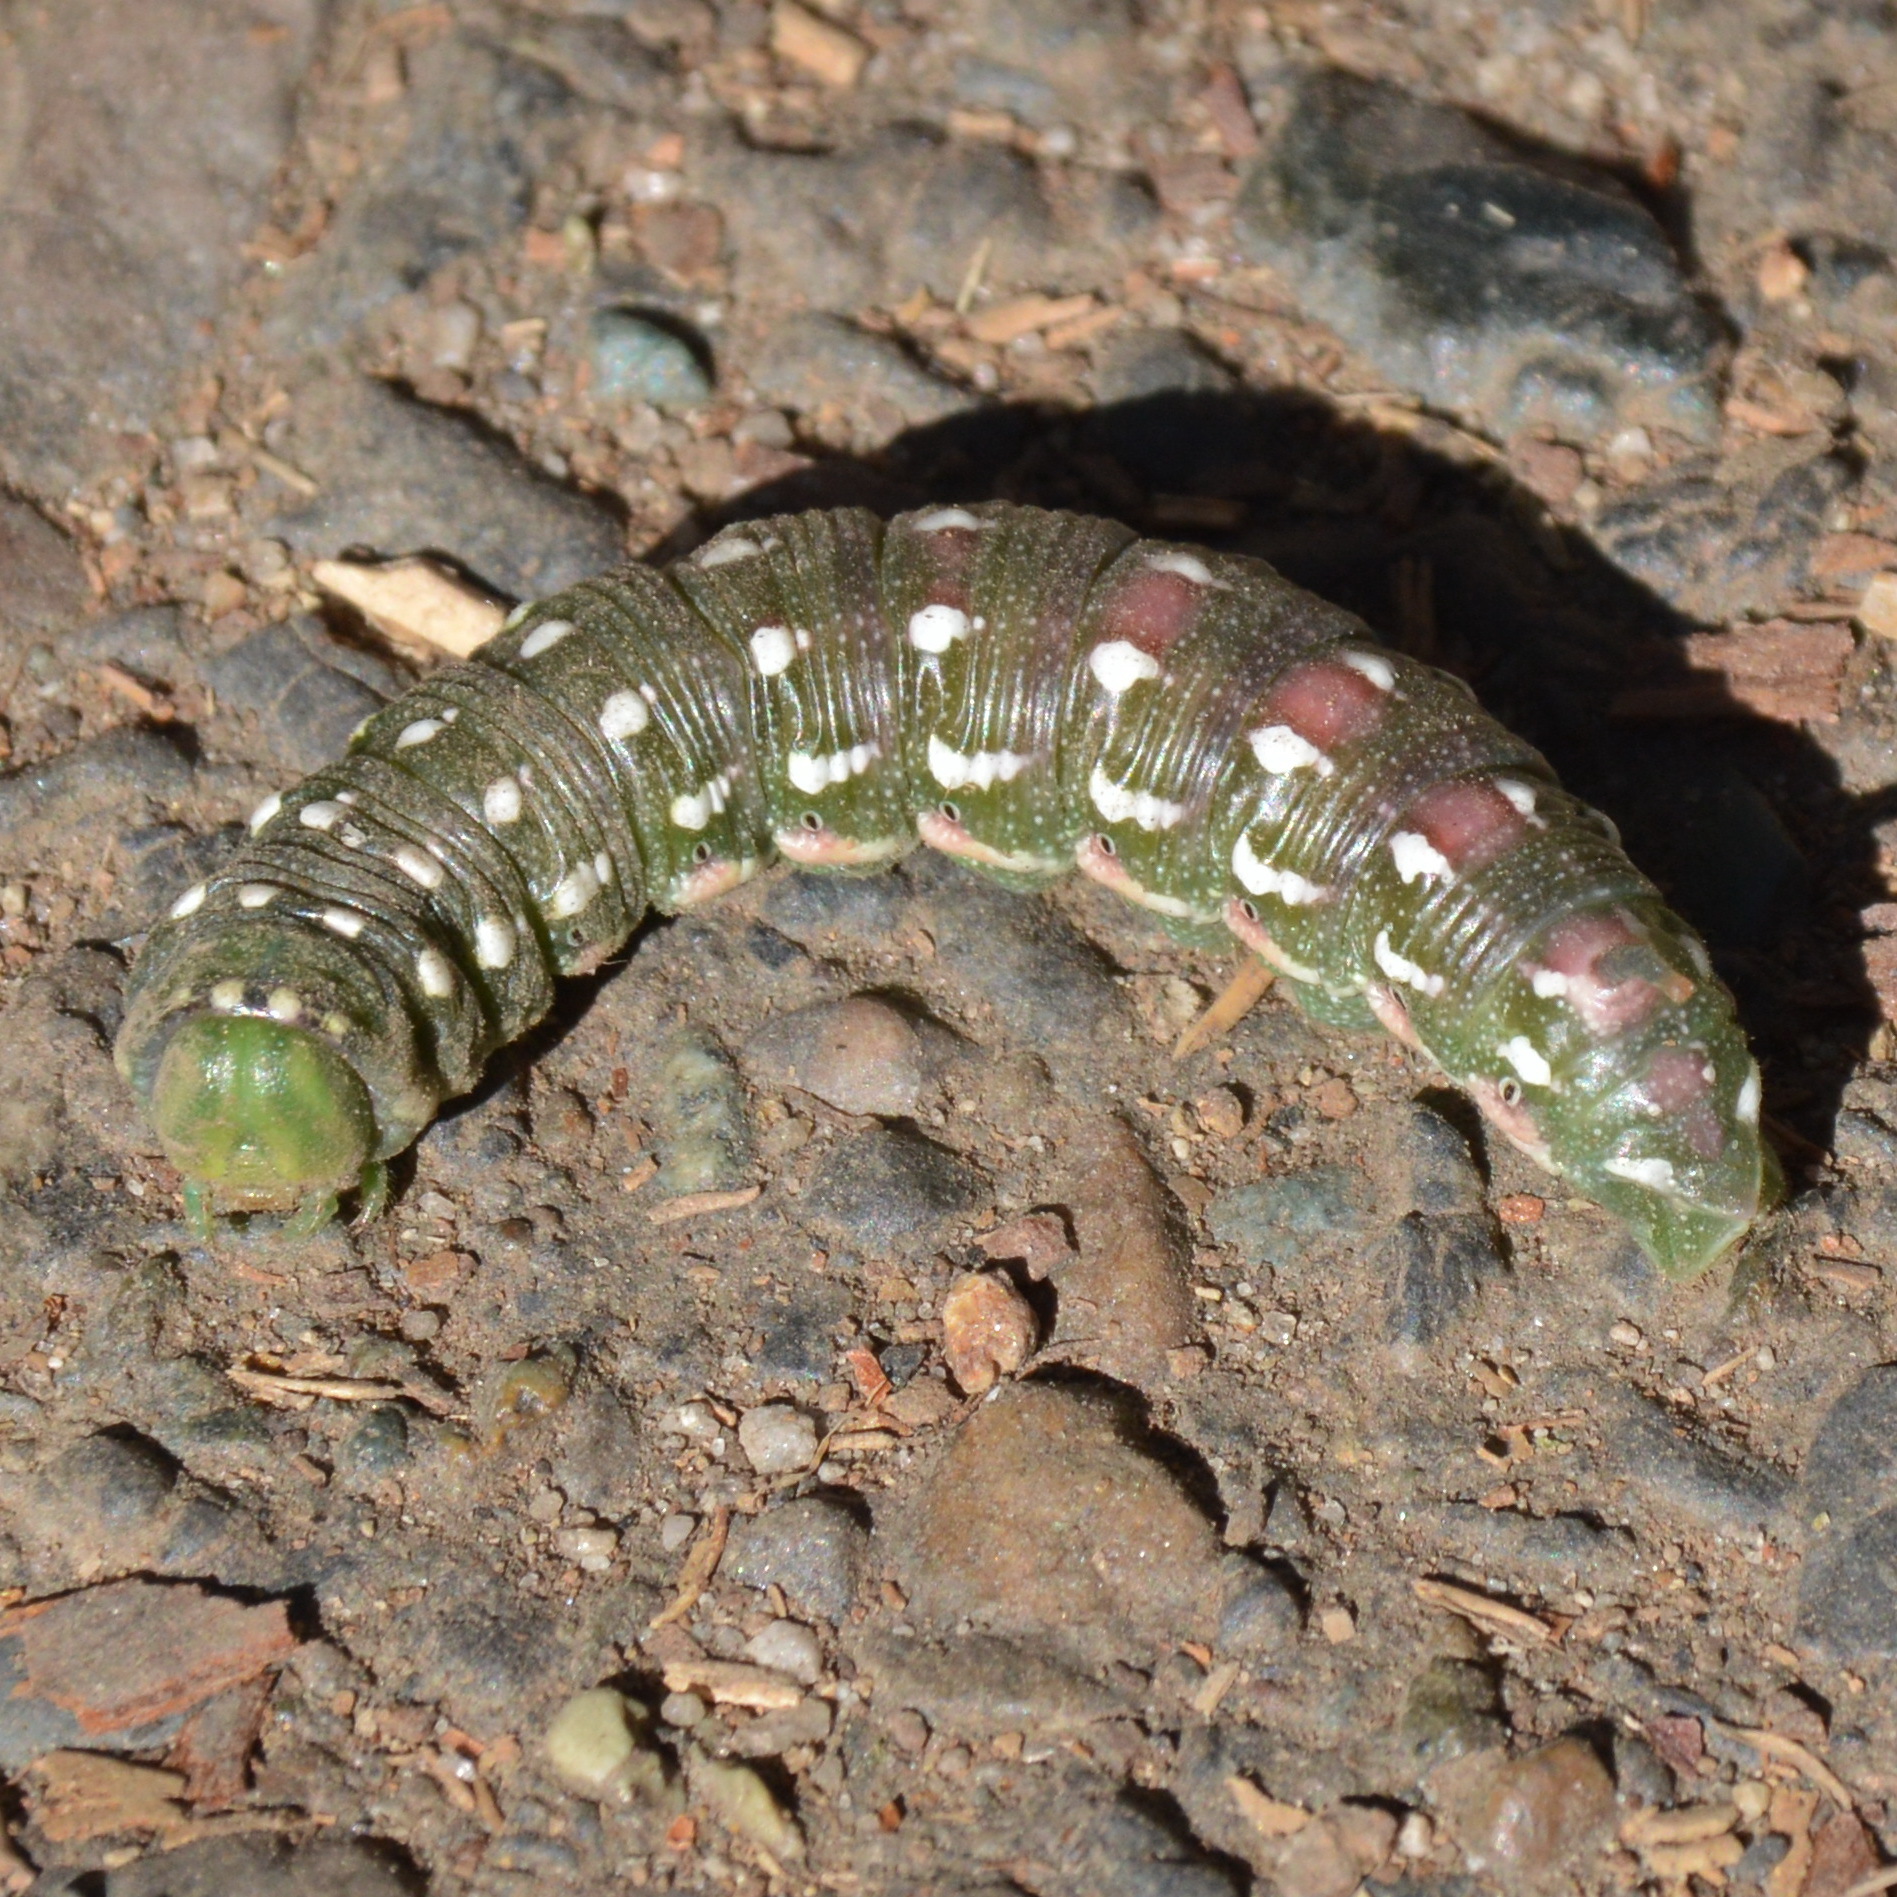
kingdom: Animalia
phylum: Arthropoda
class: Insecta
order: Lepidoptera
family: Sphingidae
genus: Sphinx
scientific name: Sphinx sequoiae
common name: Sequoia sphinx
